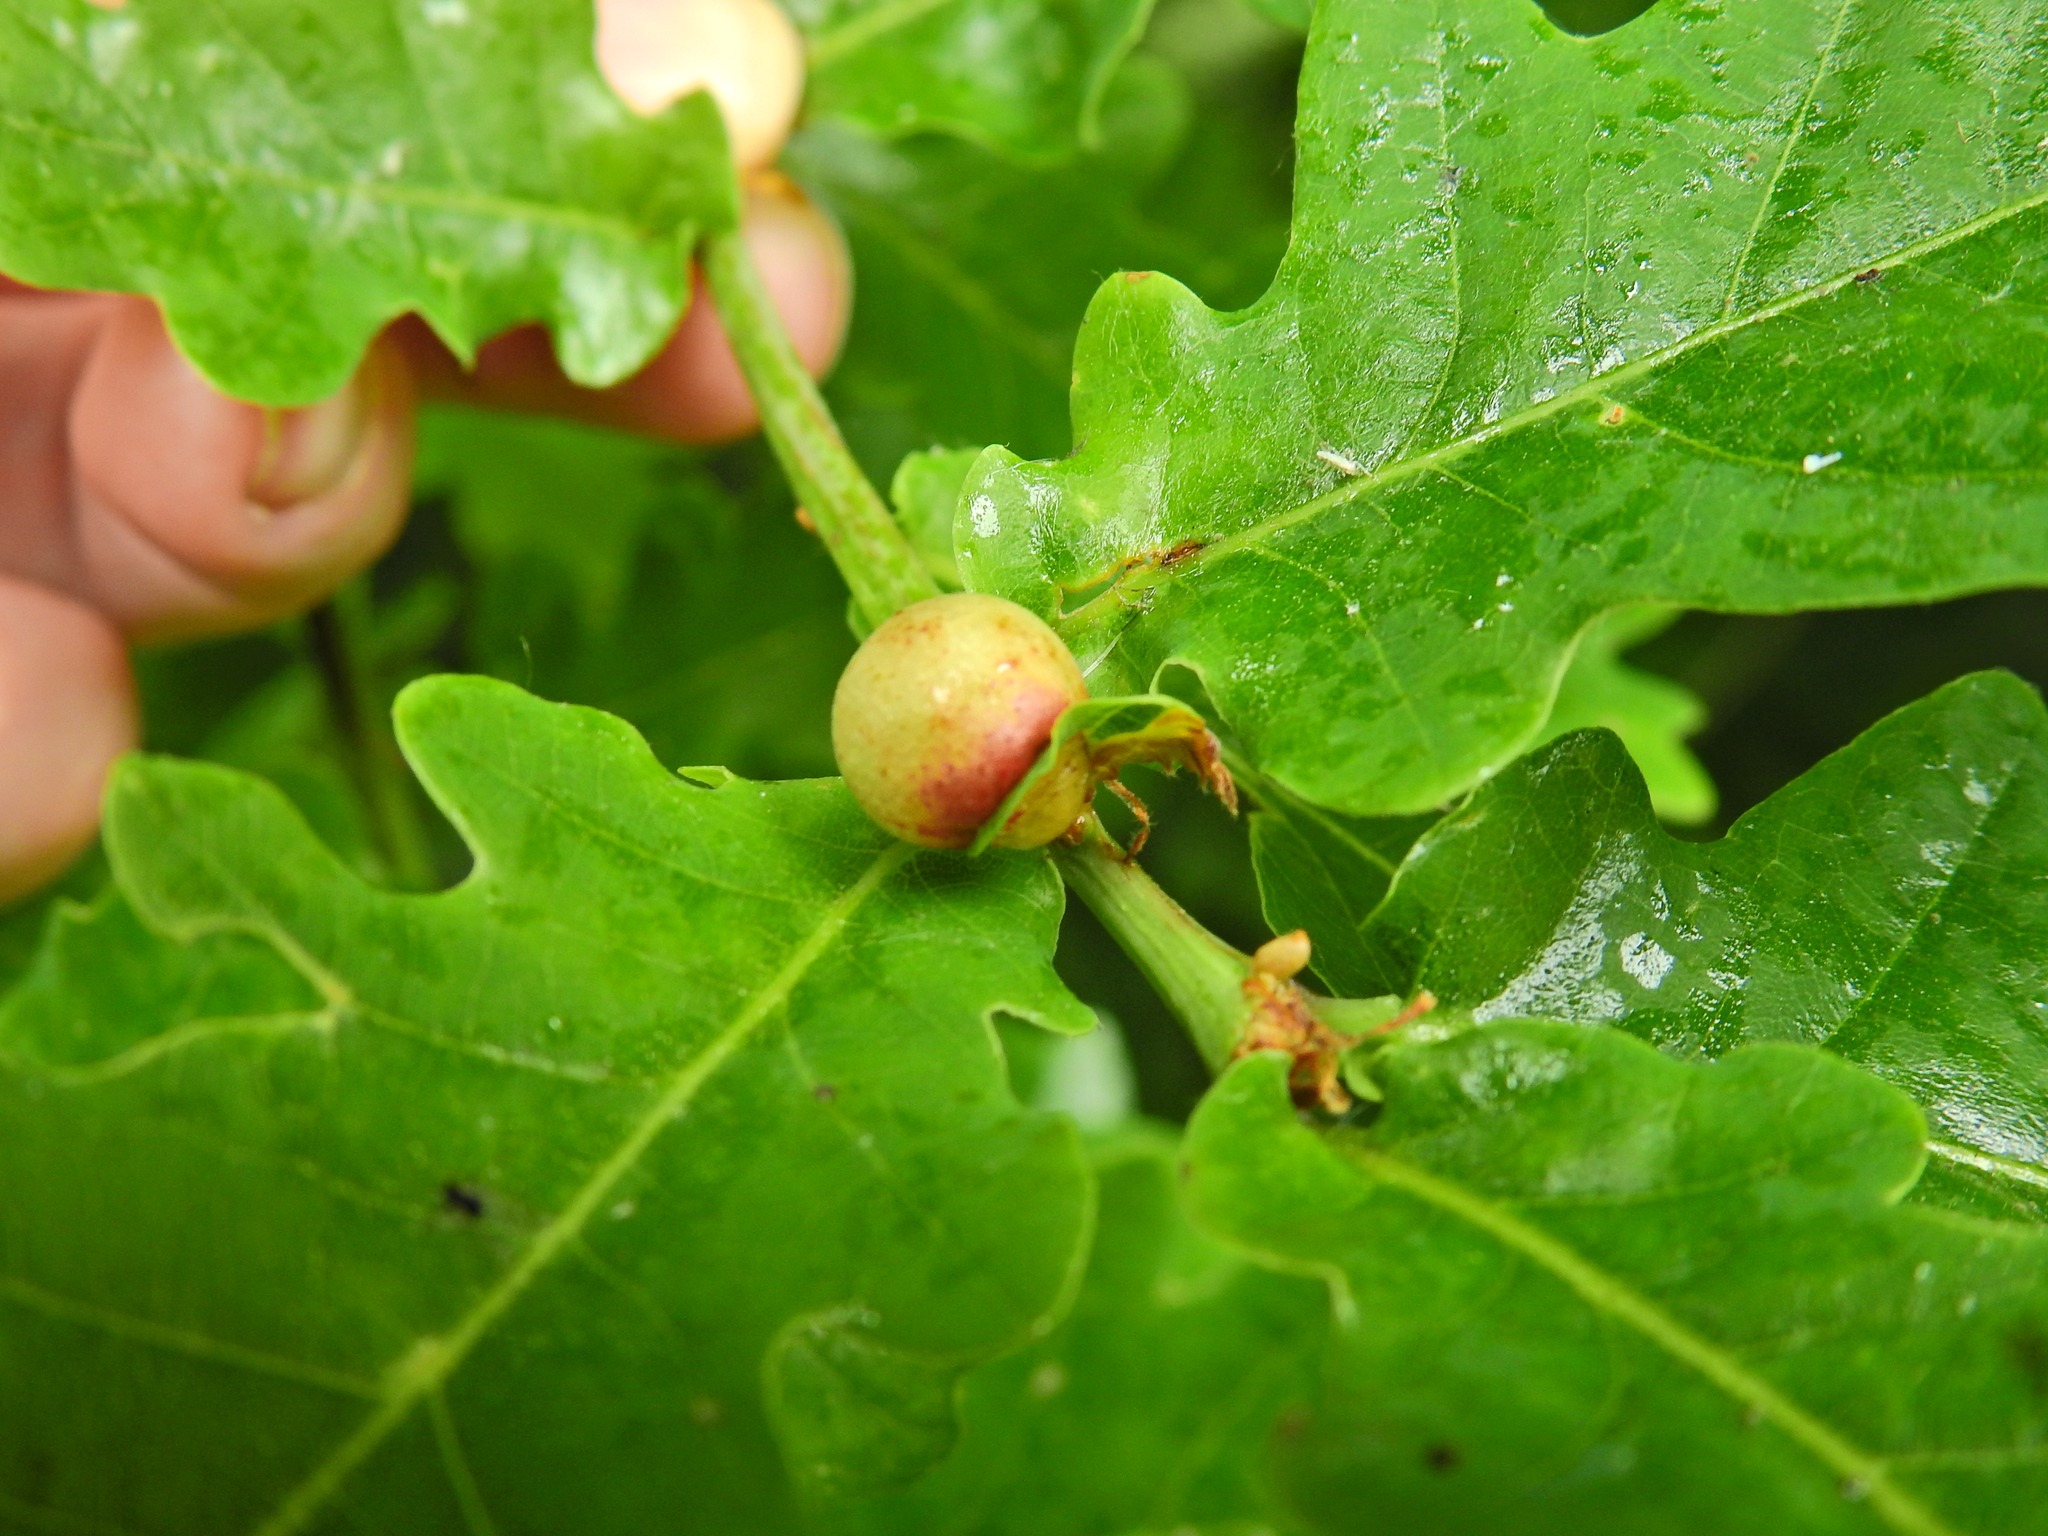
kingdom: Animalia
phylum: Arthropoda
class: Insecta
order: Hymenoptera
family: Cynipidae
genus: Neuroterus
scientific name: Neuroterus quercusbaccarum
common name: Common spangle gall
